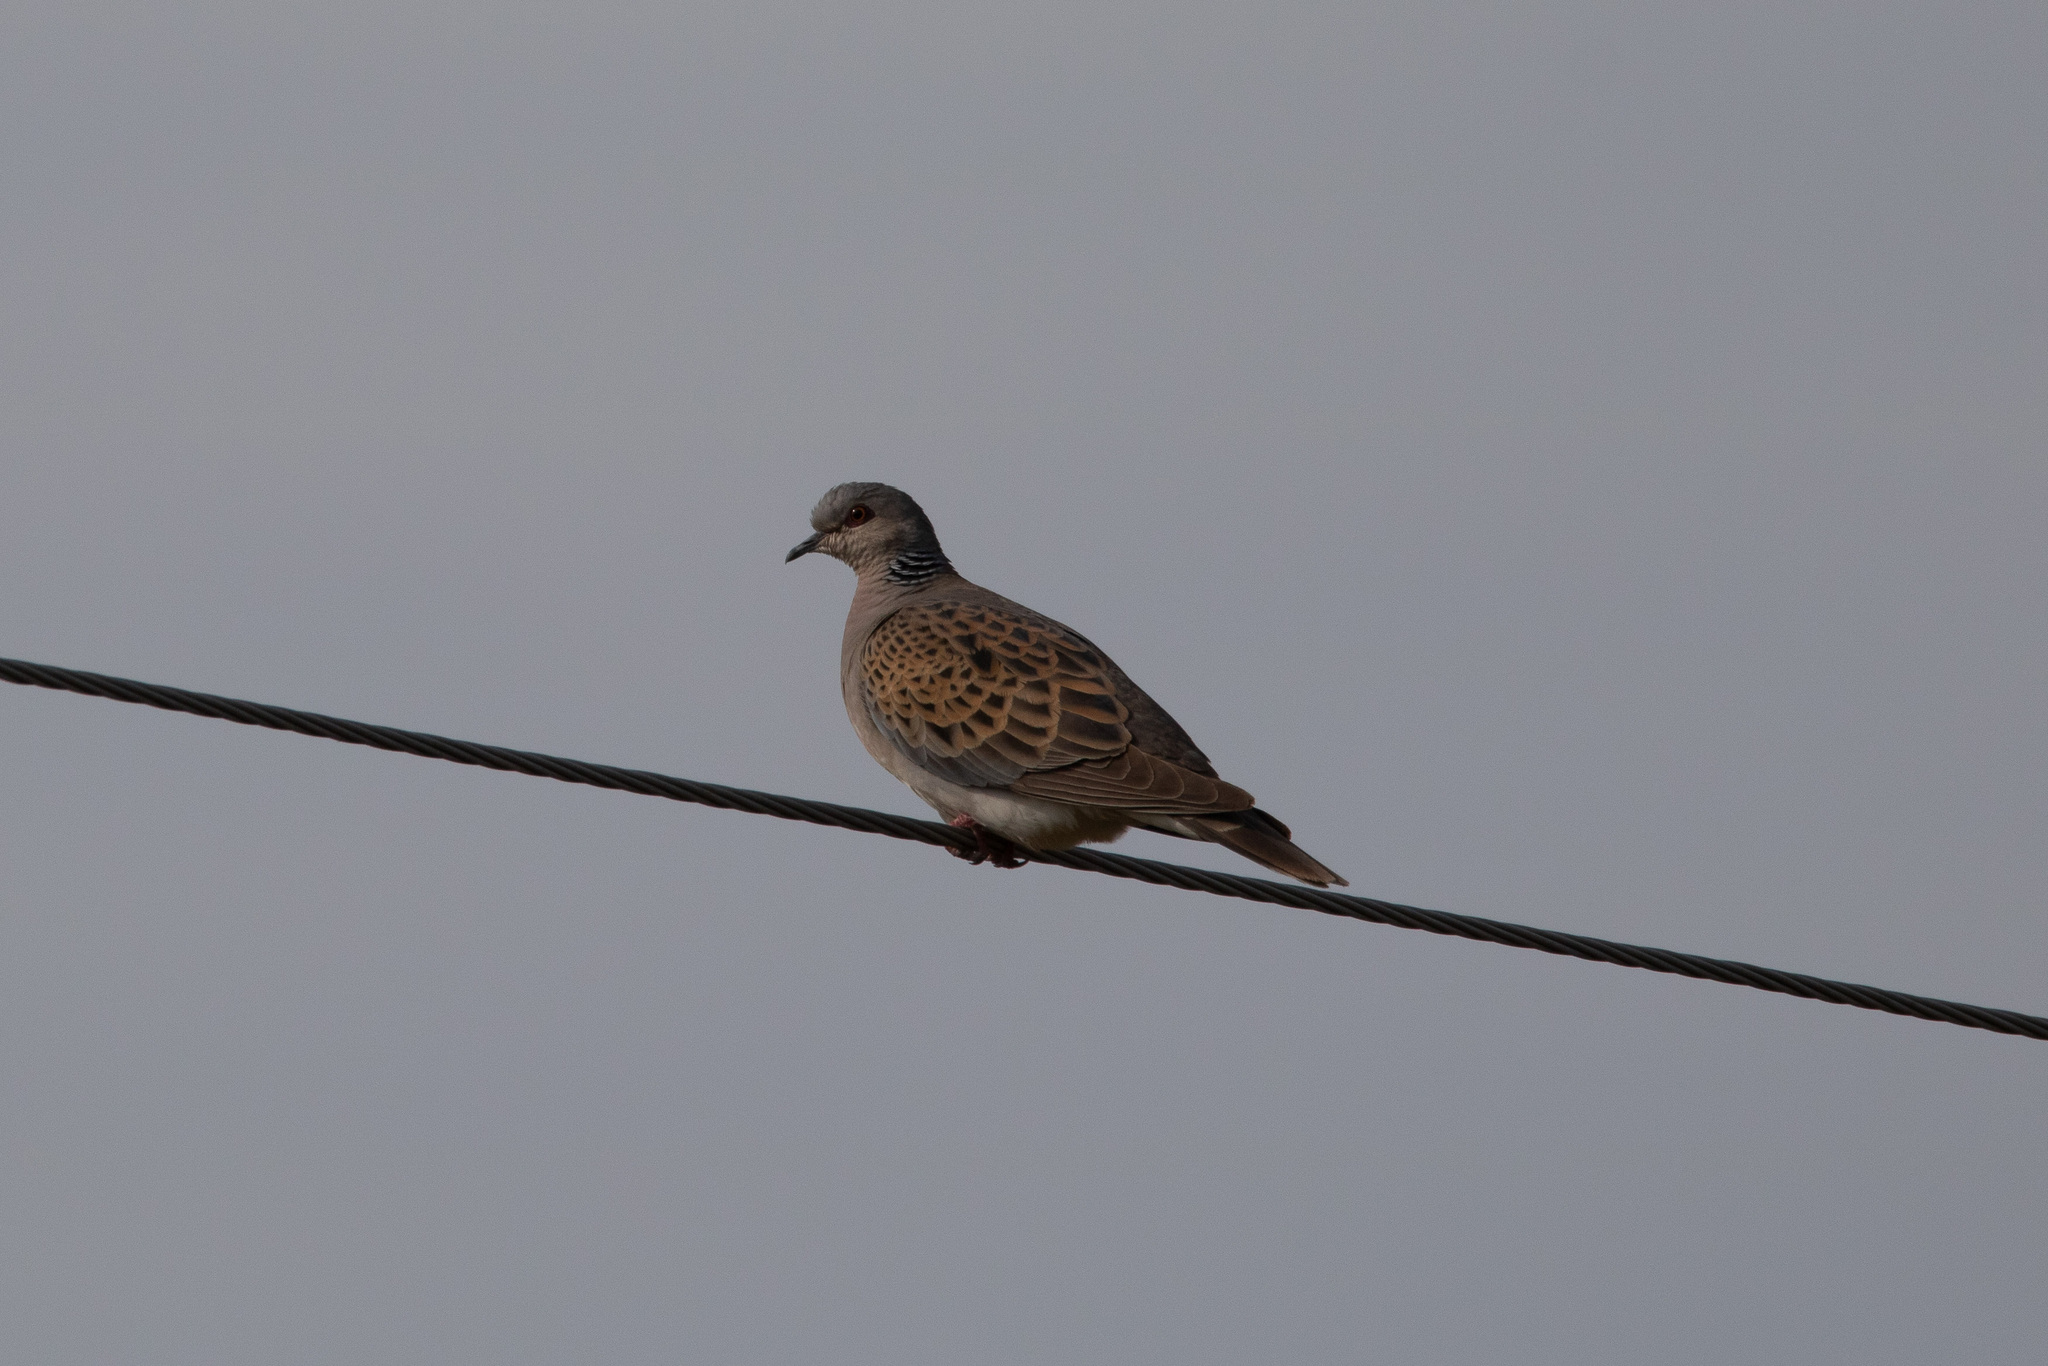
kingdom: Animalia
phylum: Chordata
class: Aves
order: Columbiformes
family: Columbidae
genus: Streptopelia
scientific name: Streptopelia turtur
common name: European turtle dove
